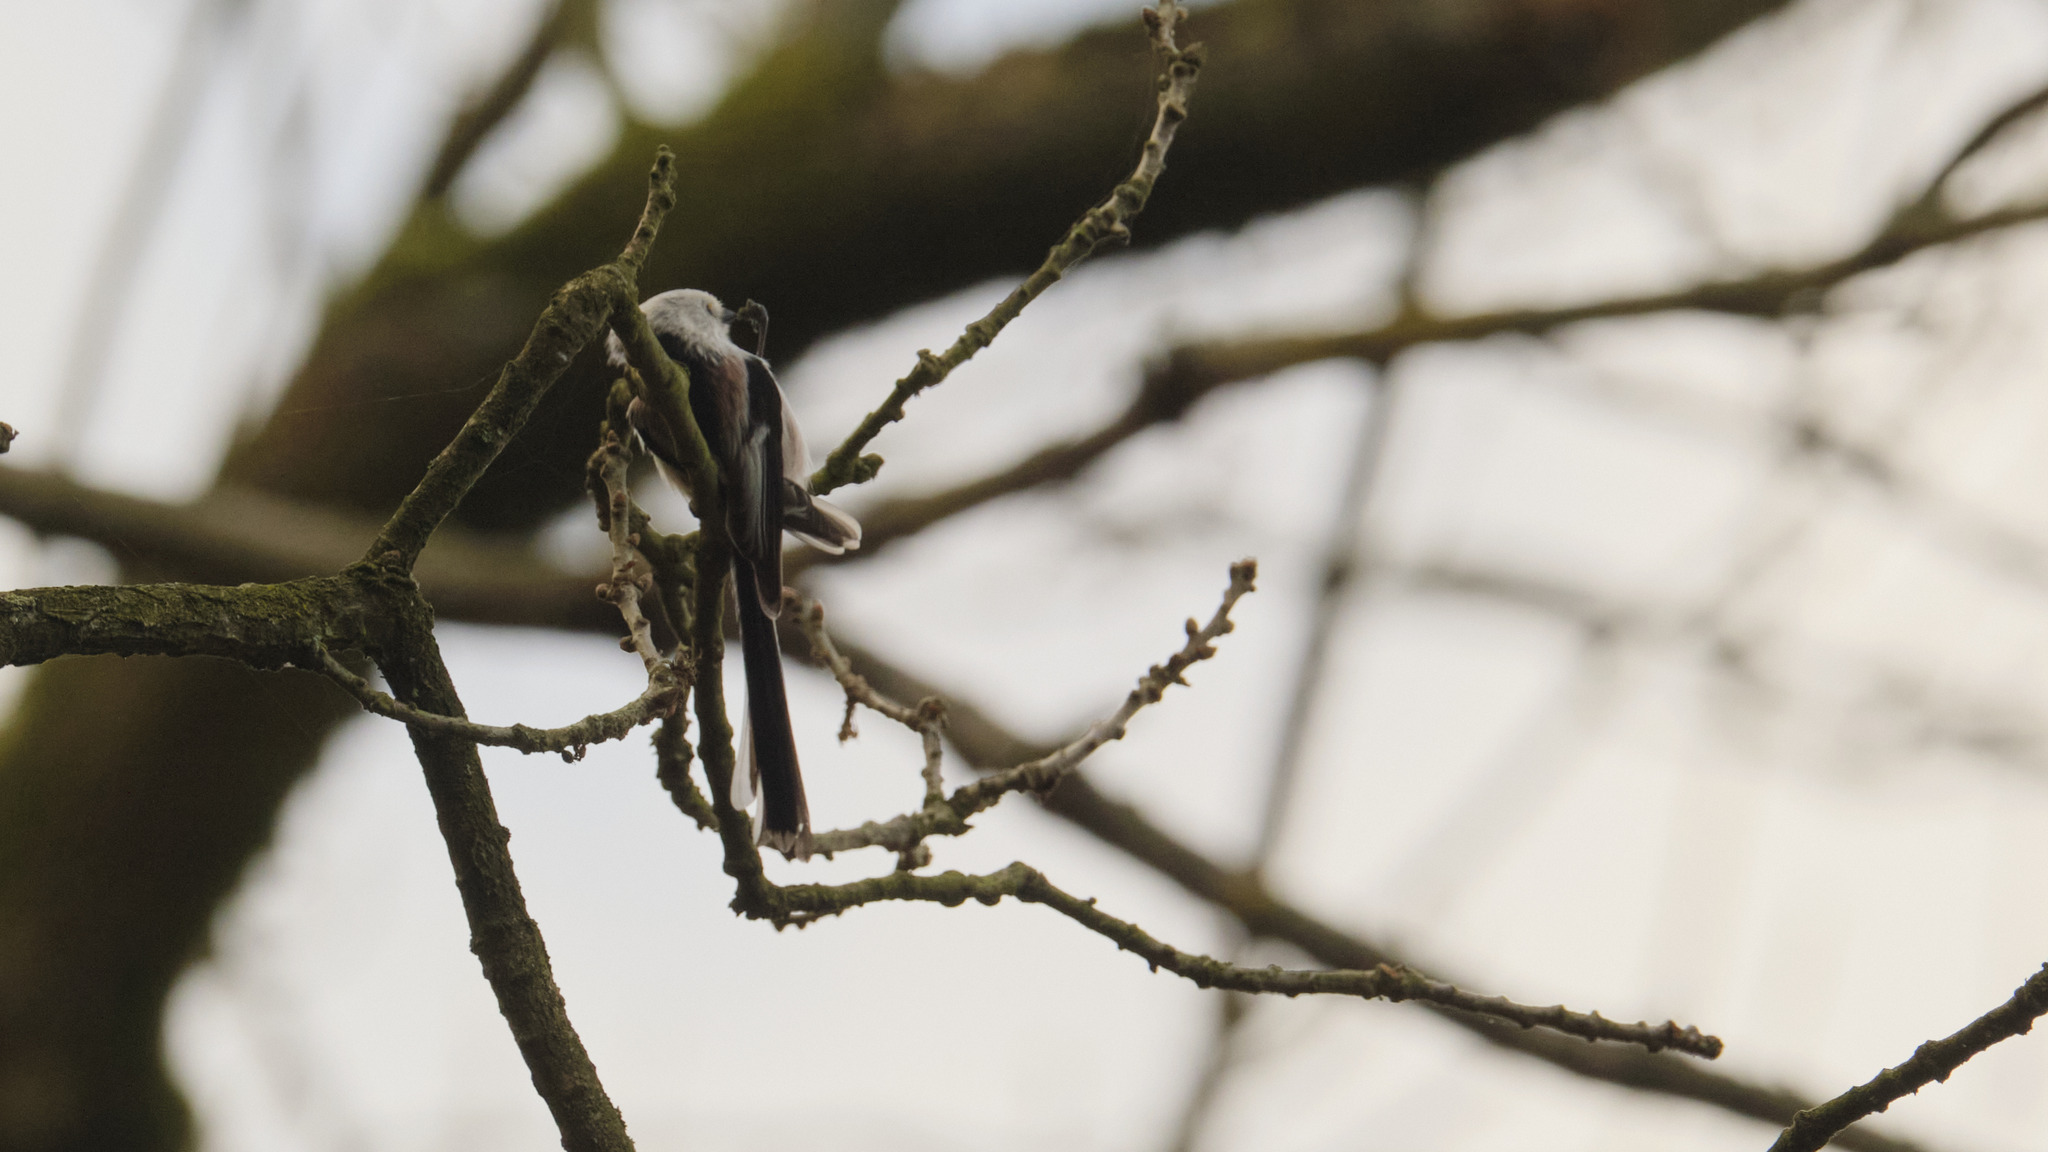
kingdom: Animalia
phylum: Chordata
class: Aves
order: Passeriformes
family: Aegithalidae
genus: Aegithalos
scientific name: Aegithalos caudatus
